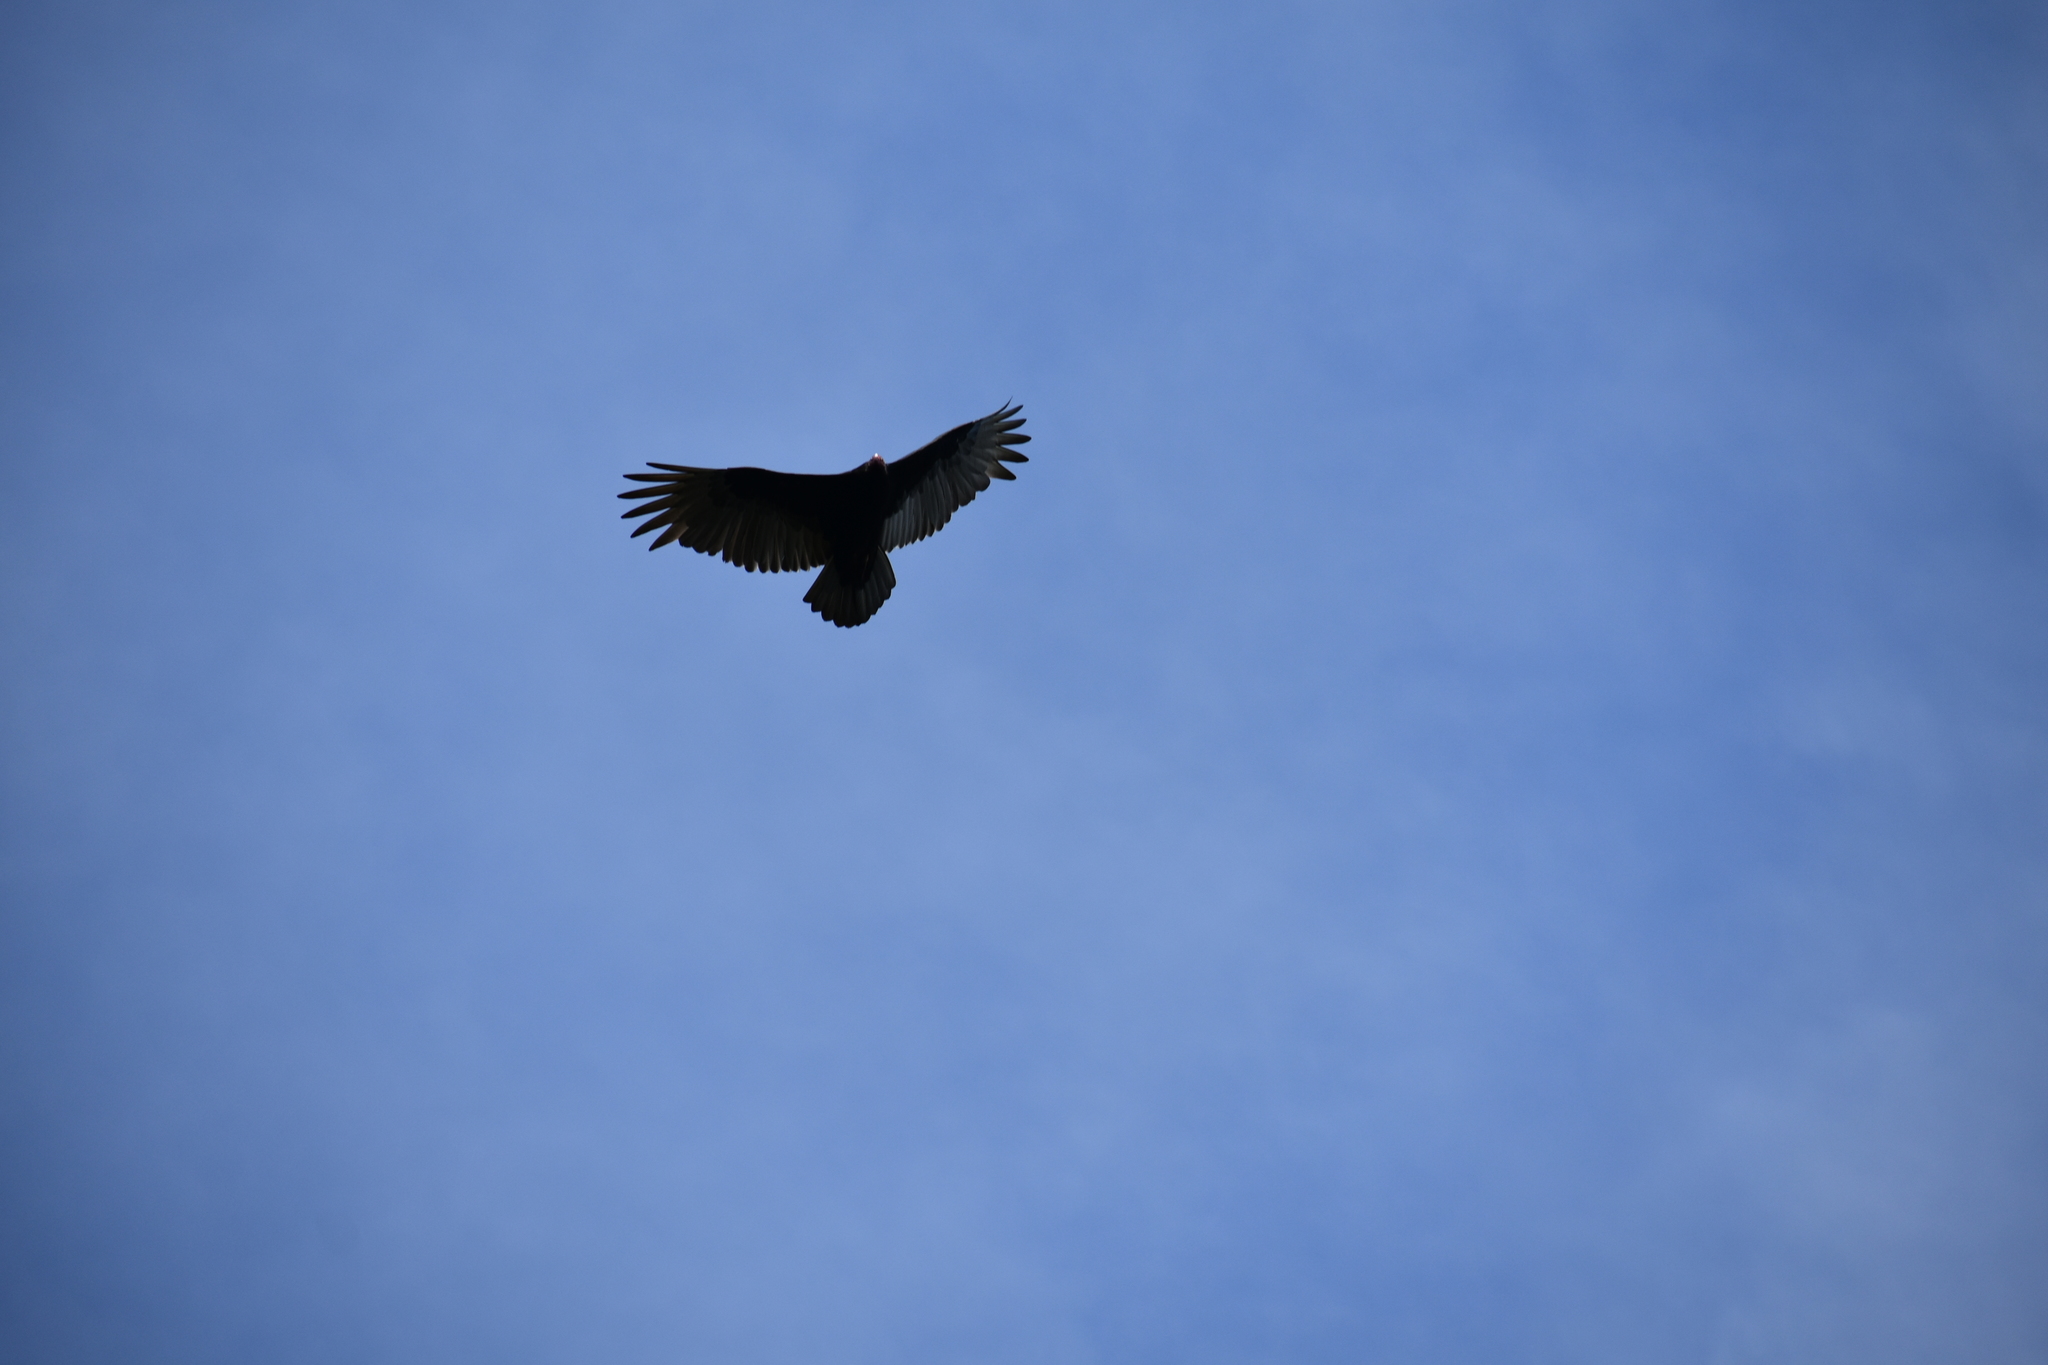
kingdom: Animalia
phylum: Chordata
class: Aves
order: Accipitriformes
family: Cathartidae
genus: Cathartes
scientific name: Cathartes aura
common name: Turkey vulture
